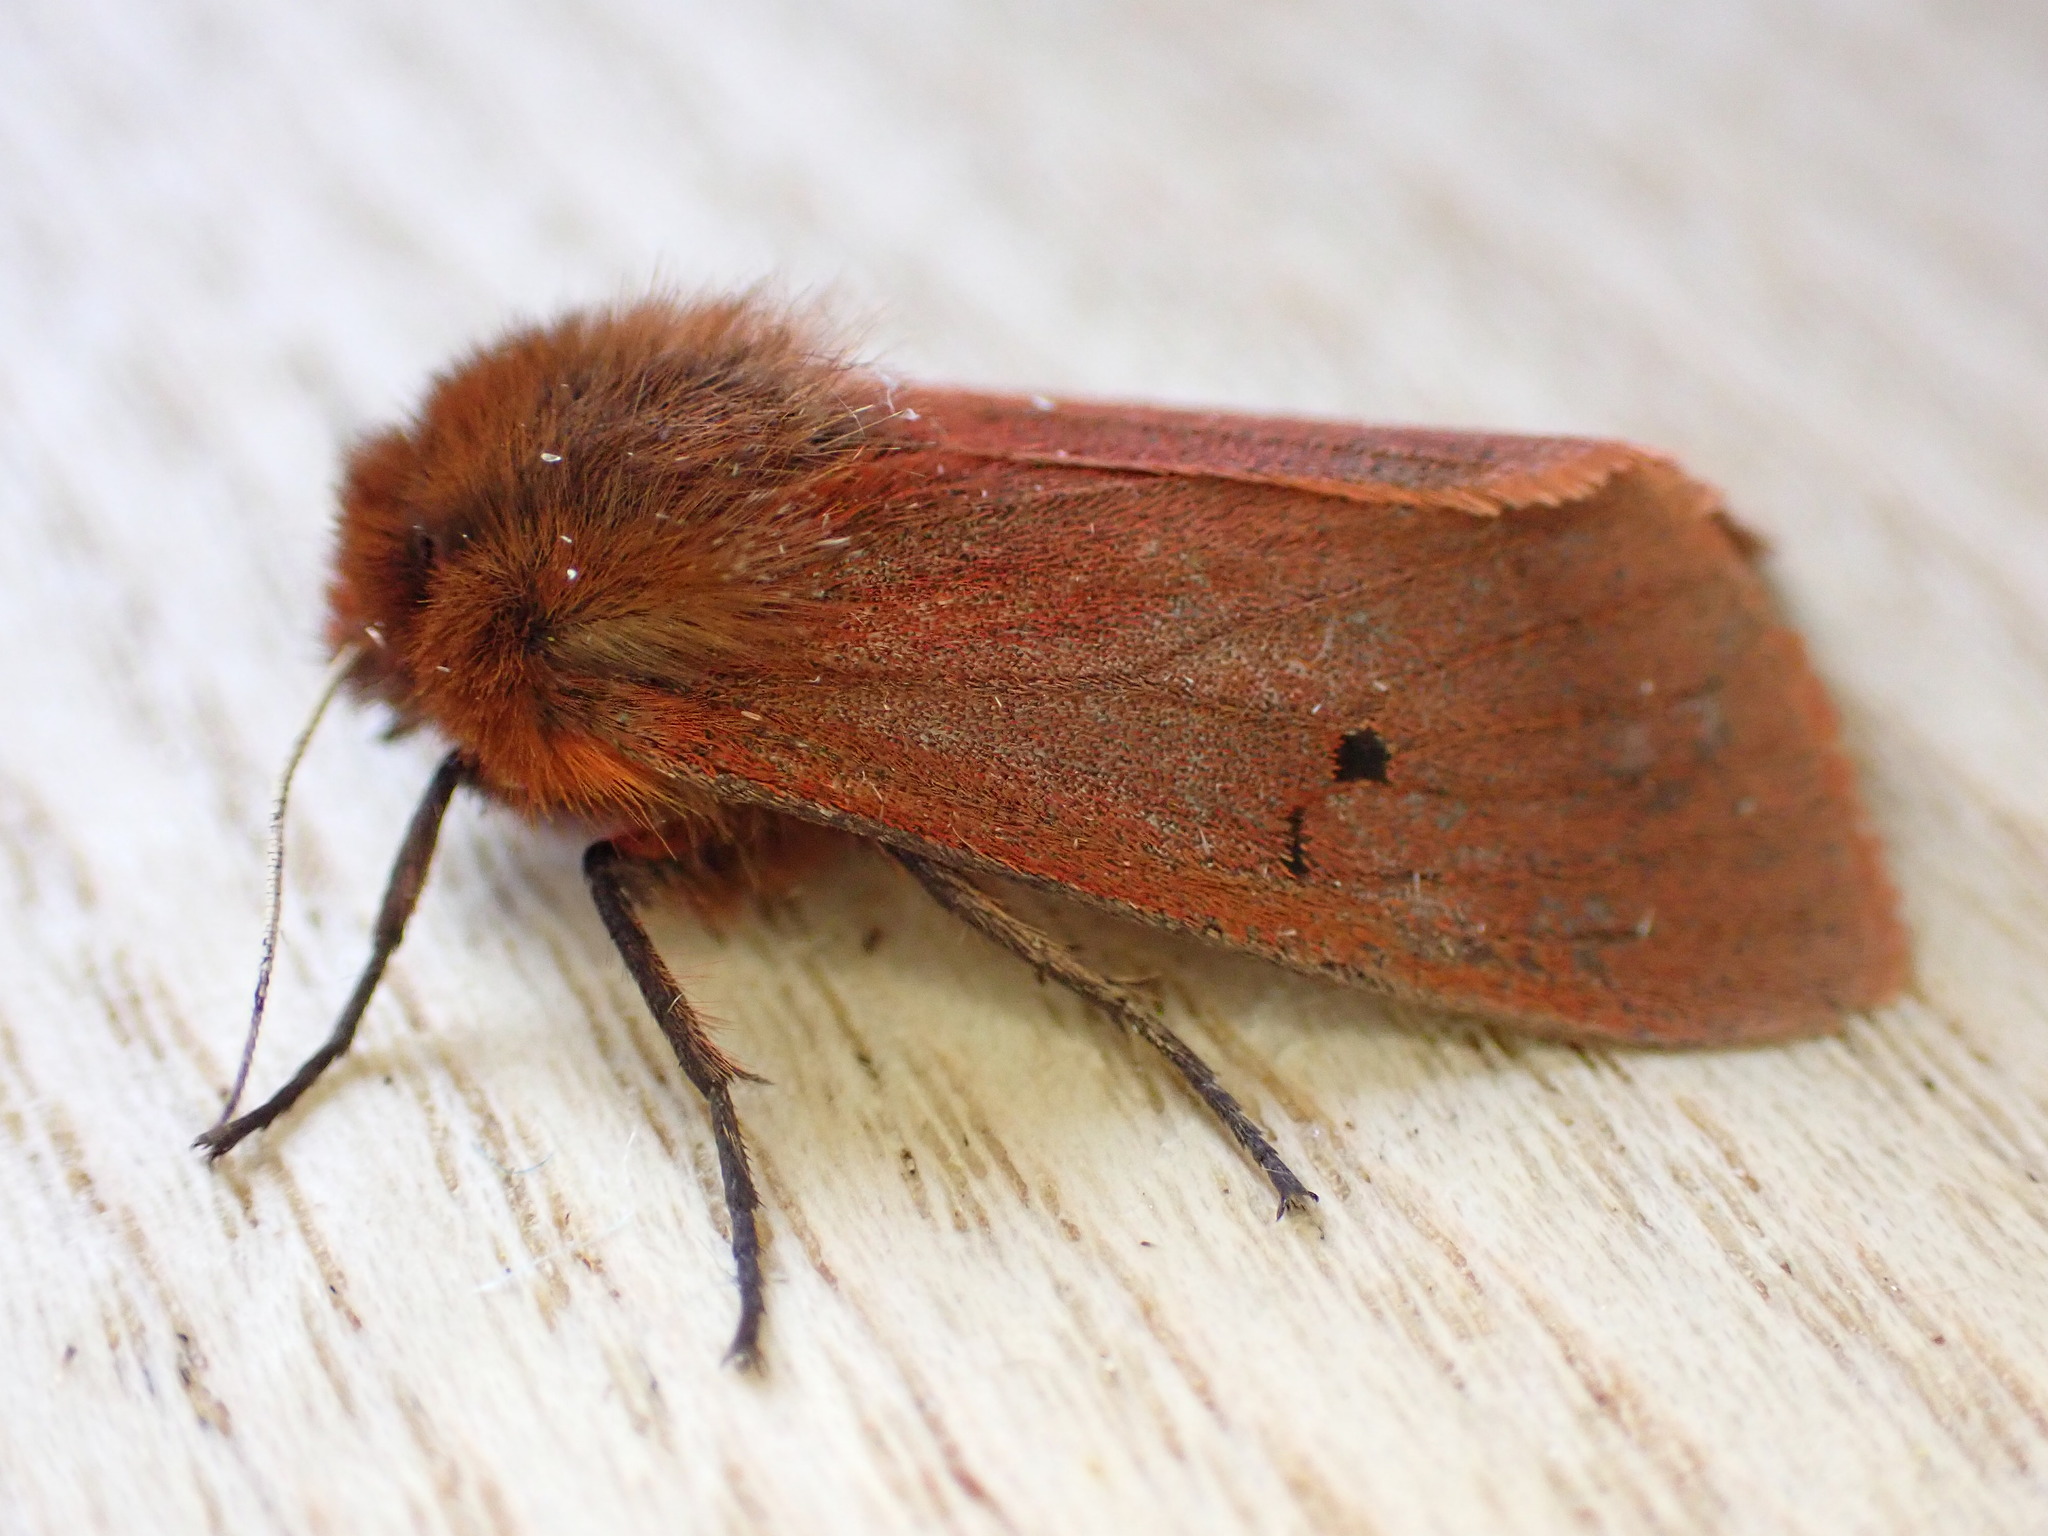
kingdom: Animalia
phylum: Arthropoda
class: Insecta
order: Lepidoptera
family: Erebidae
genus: Phragmatobia
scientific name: Phragmatobia fuliginosa
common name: Ruby tiger
